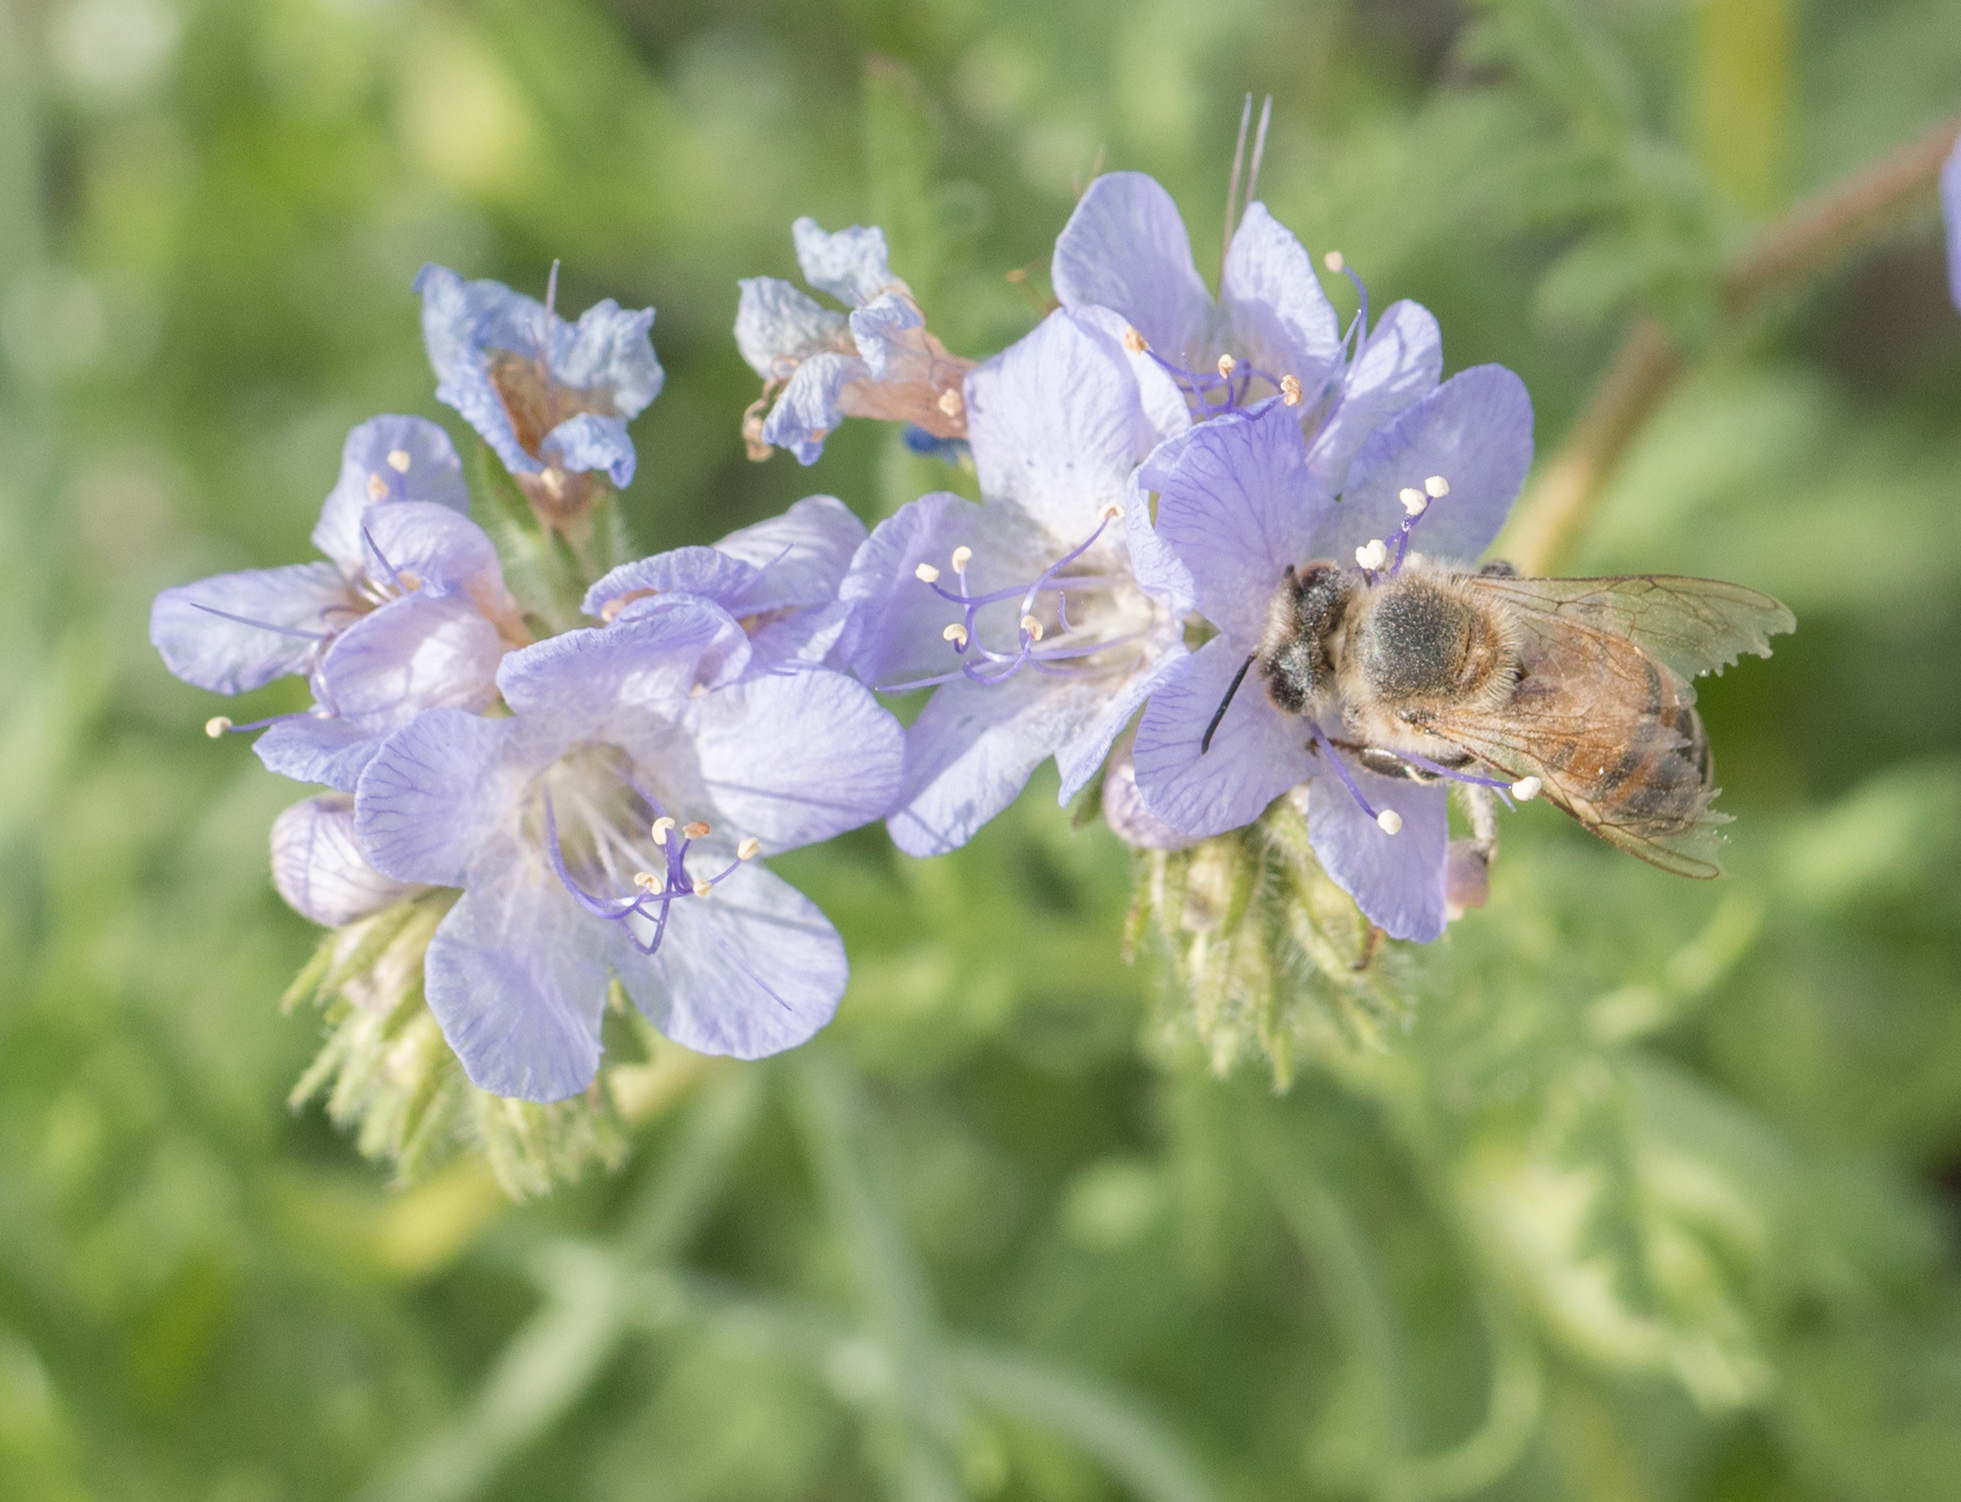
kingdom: Animalia
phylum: Arthropoda
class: Insecta
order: Hymenoptera
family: Apidae
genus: Apis
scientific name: Apis mellifera
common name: Honey bee
